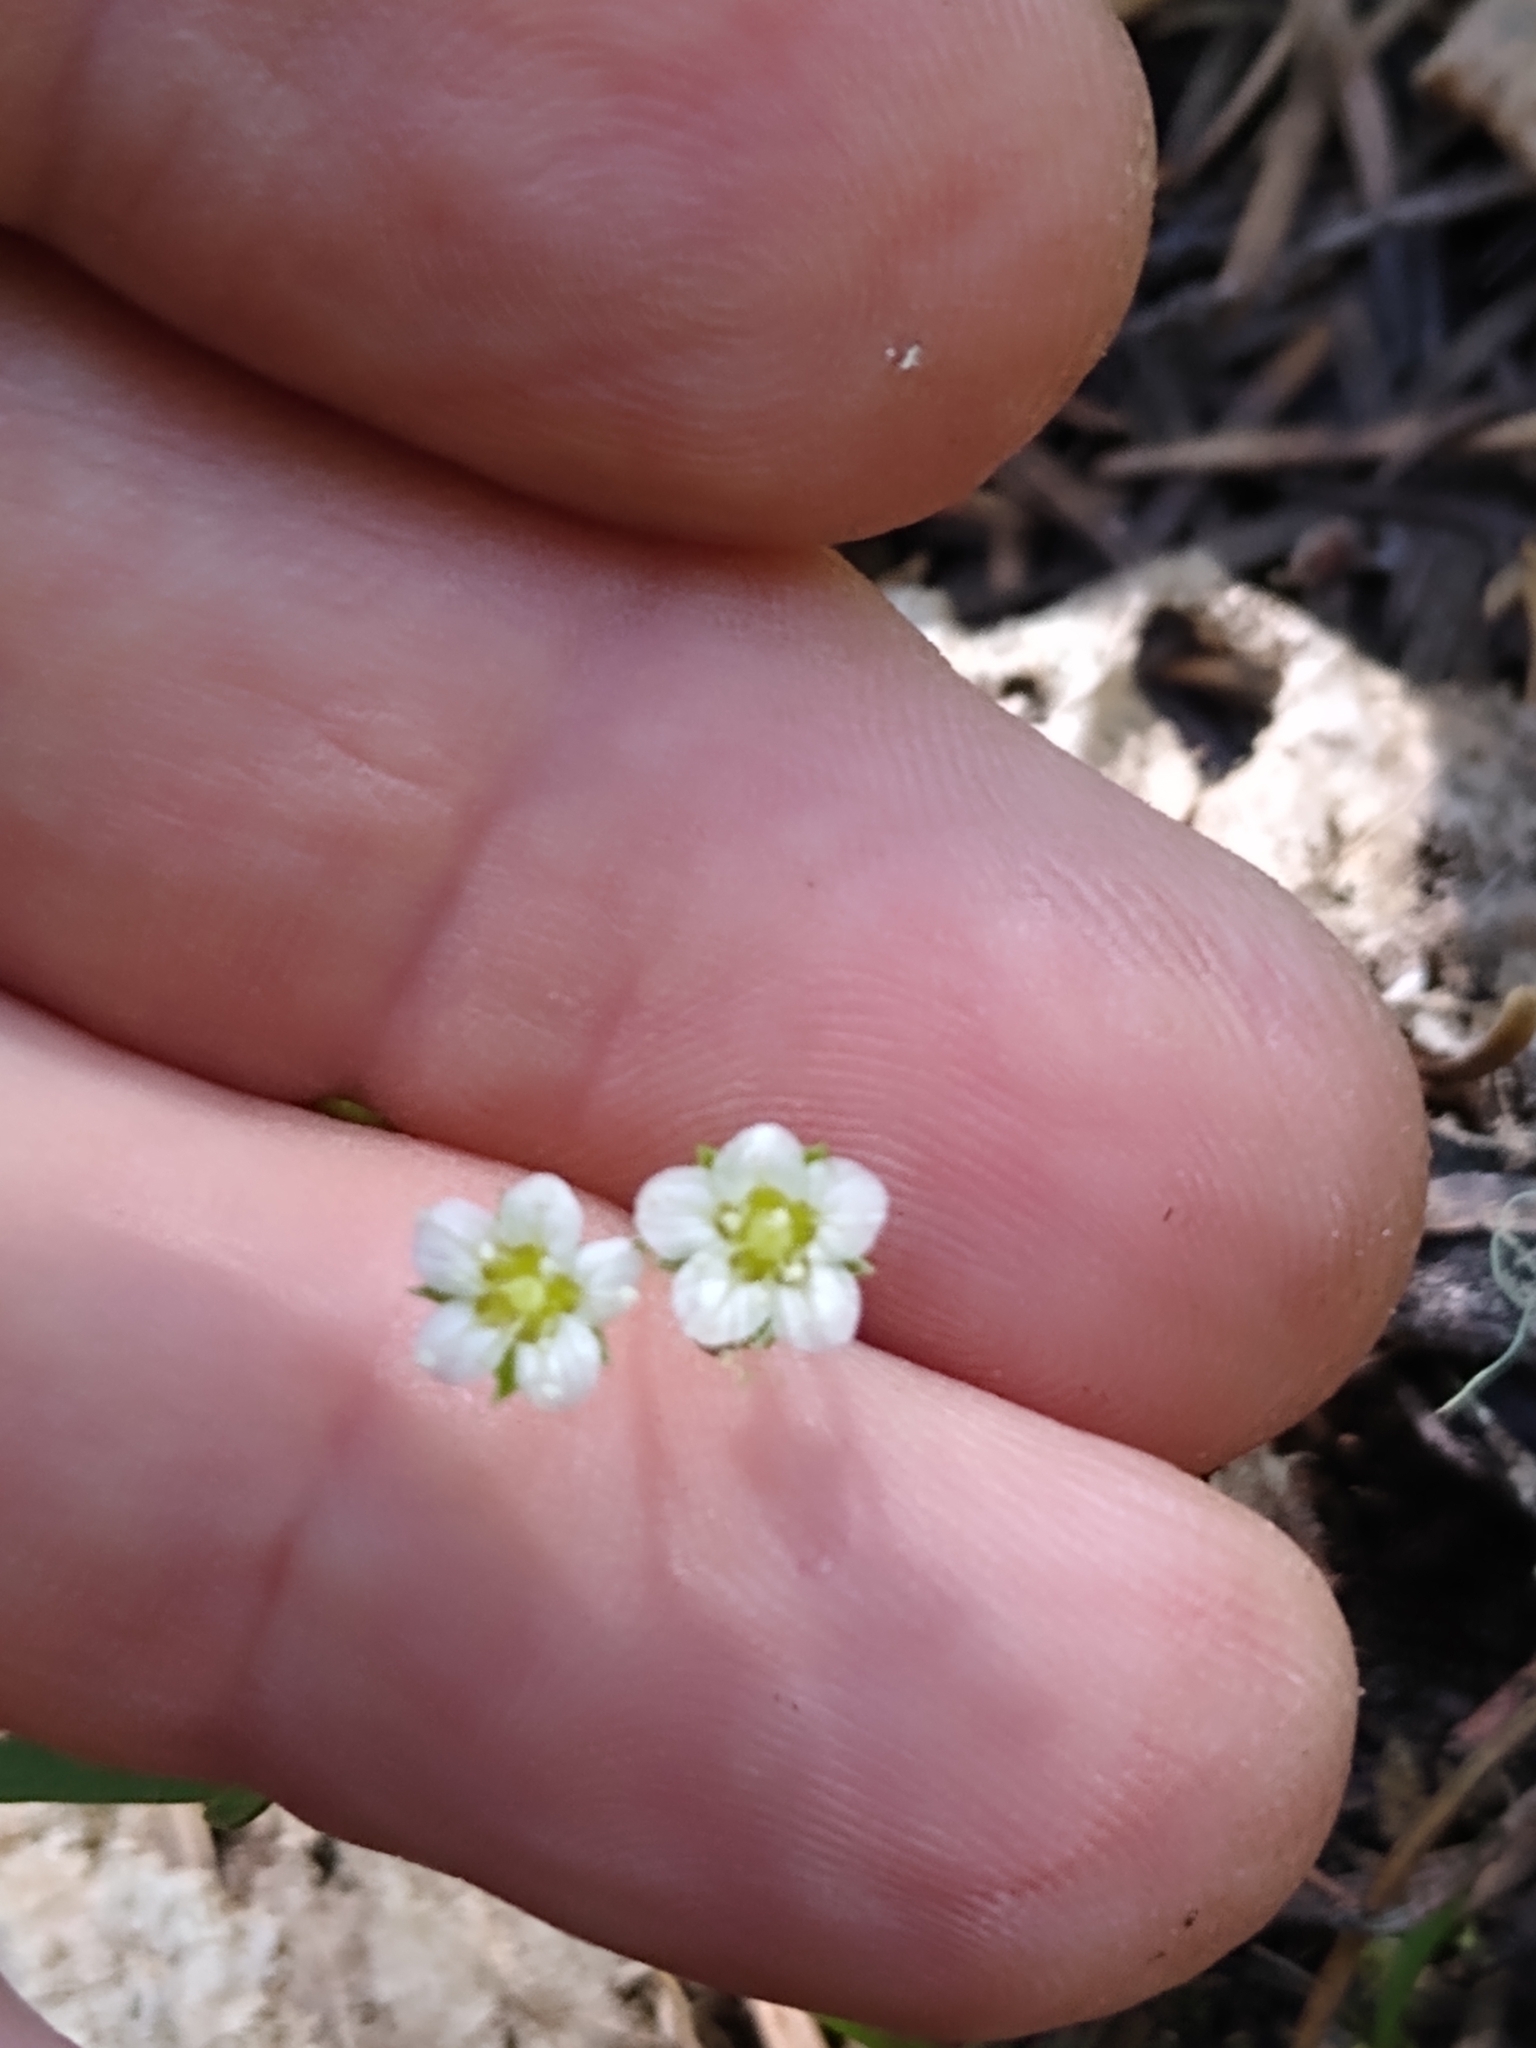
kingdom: Plantae
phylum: Tracheophyta
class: Magnoliopsida
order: Caryophyllales
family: Caryophyllaceae
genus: Moehringia
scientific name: Moehringia macrophylla
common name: Big-leaf sandwort
